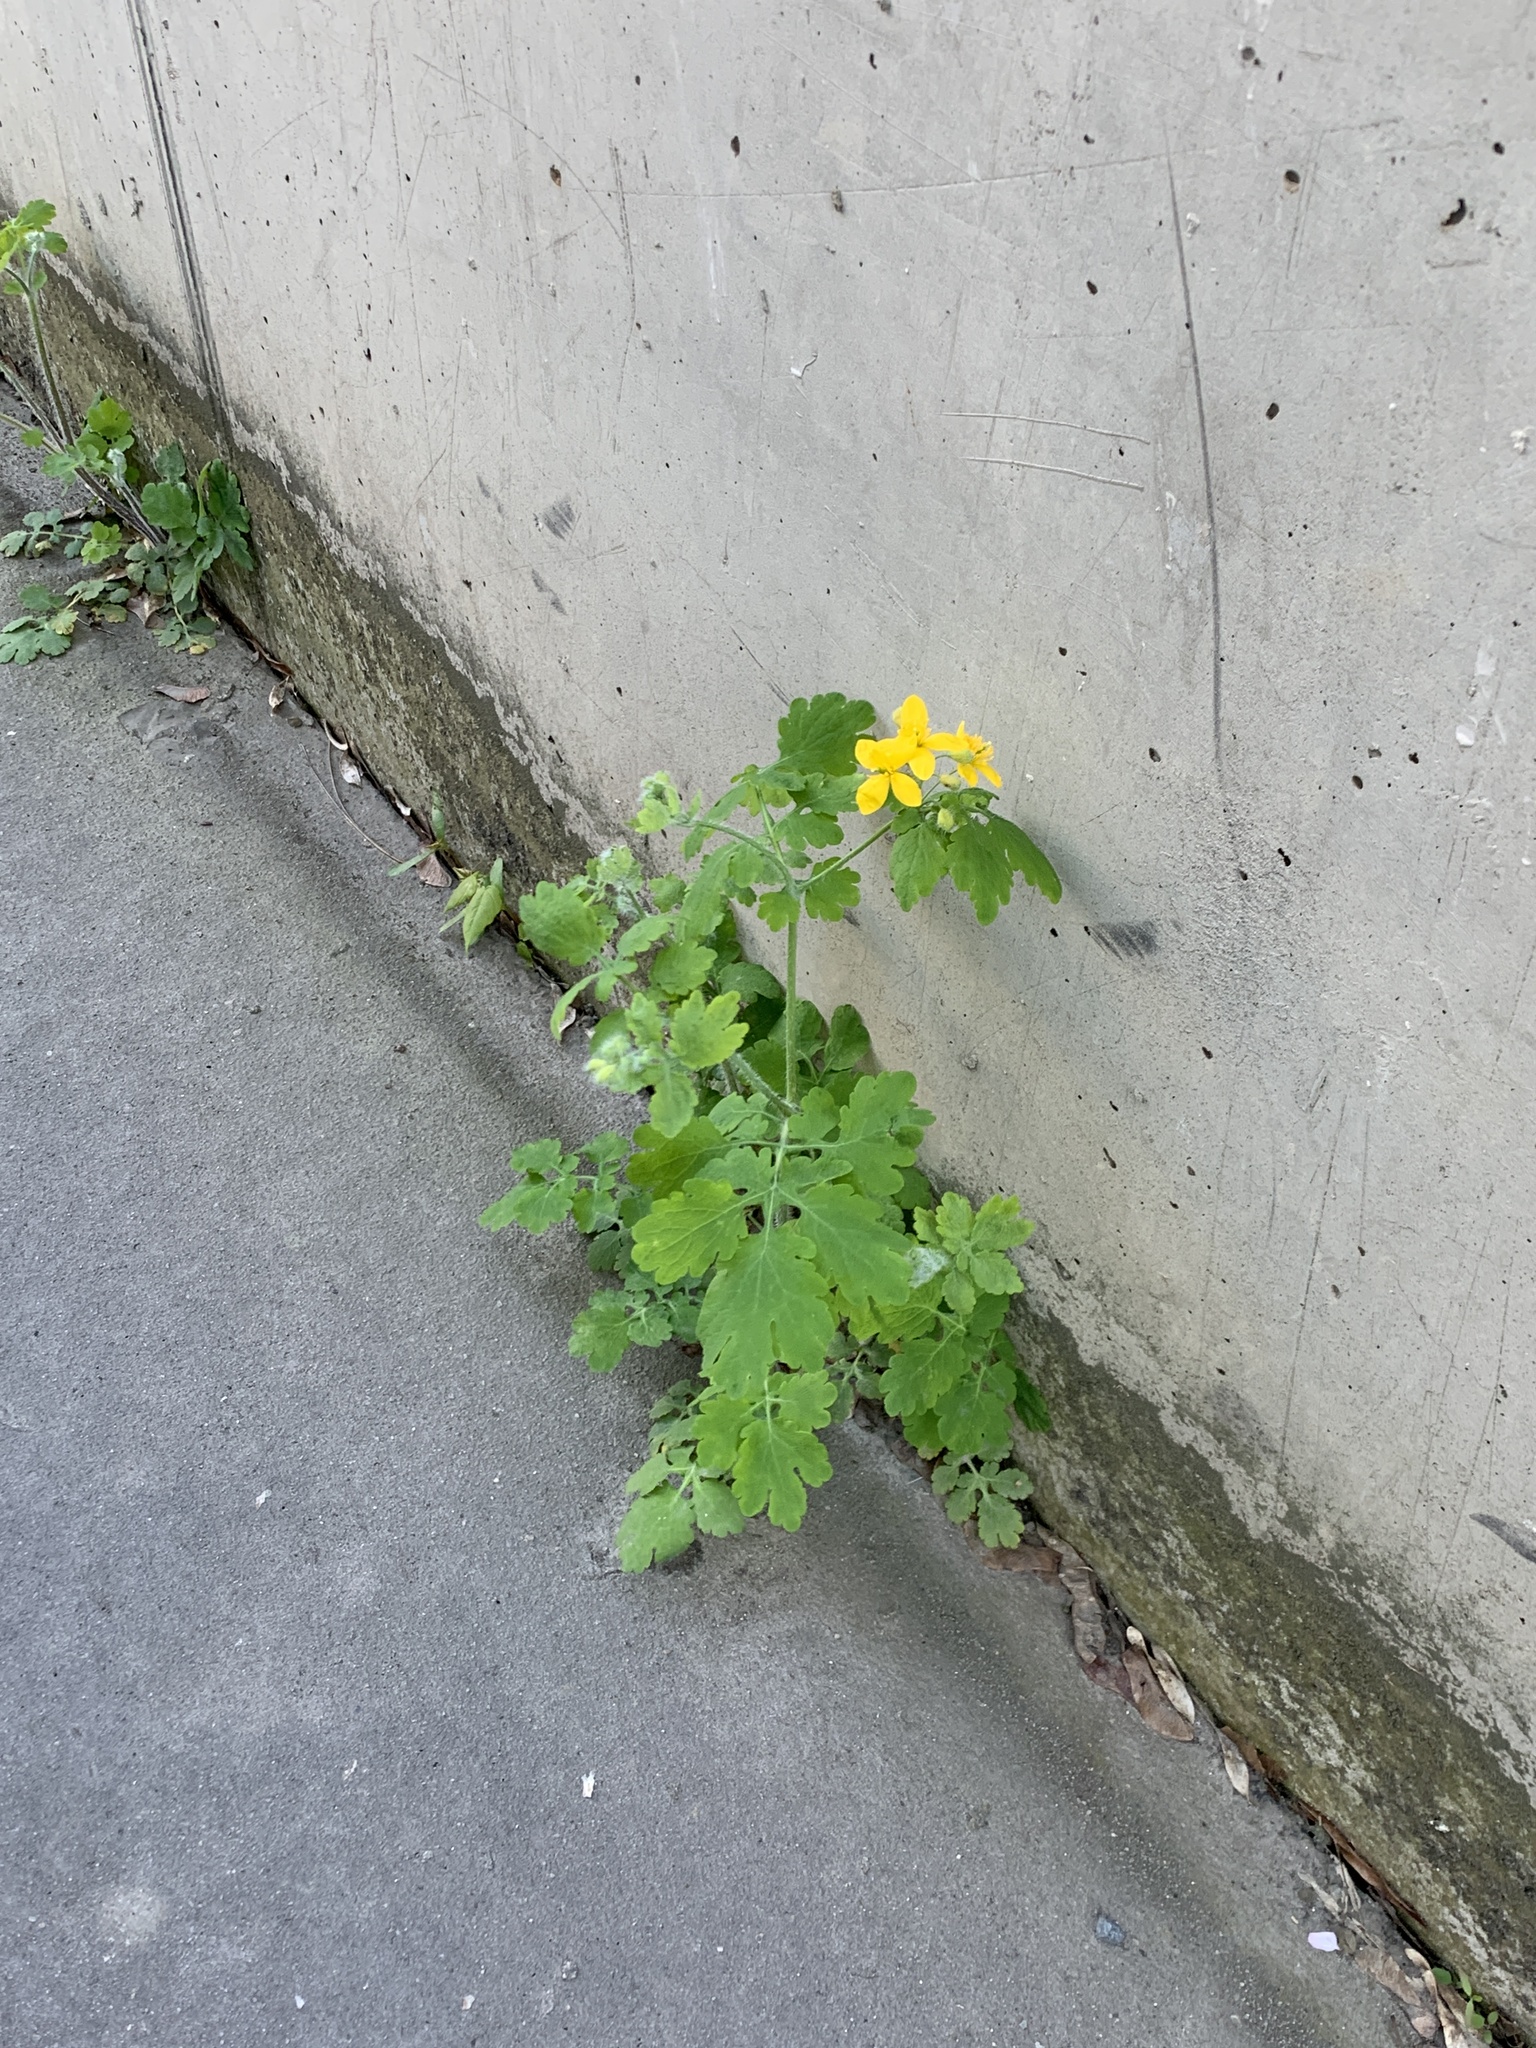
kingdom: Plantae
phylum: Tracheophyta
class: Magnoliopsida
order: Ranunculales
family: Papaveraceae
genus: Chelidonium
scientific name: Chelidonium majus
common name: Greater celandine
